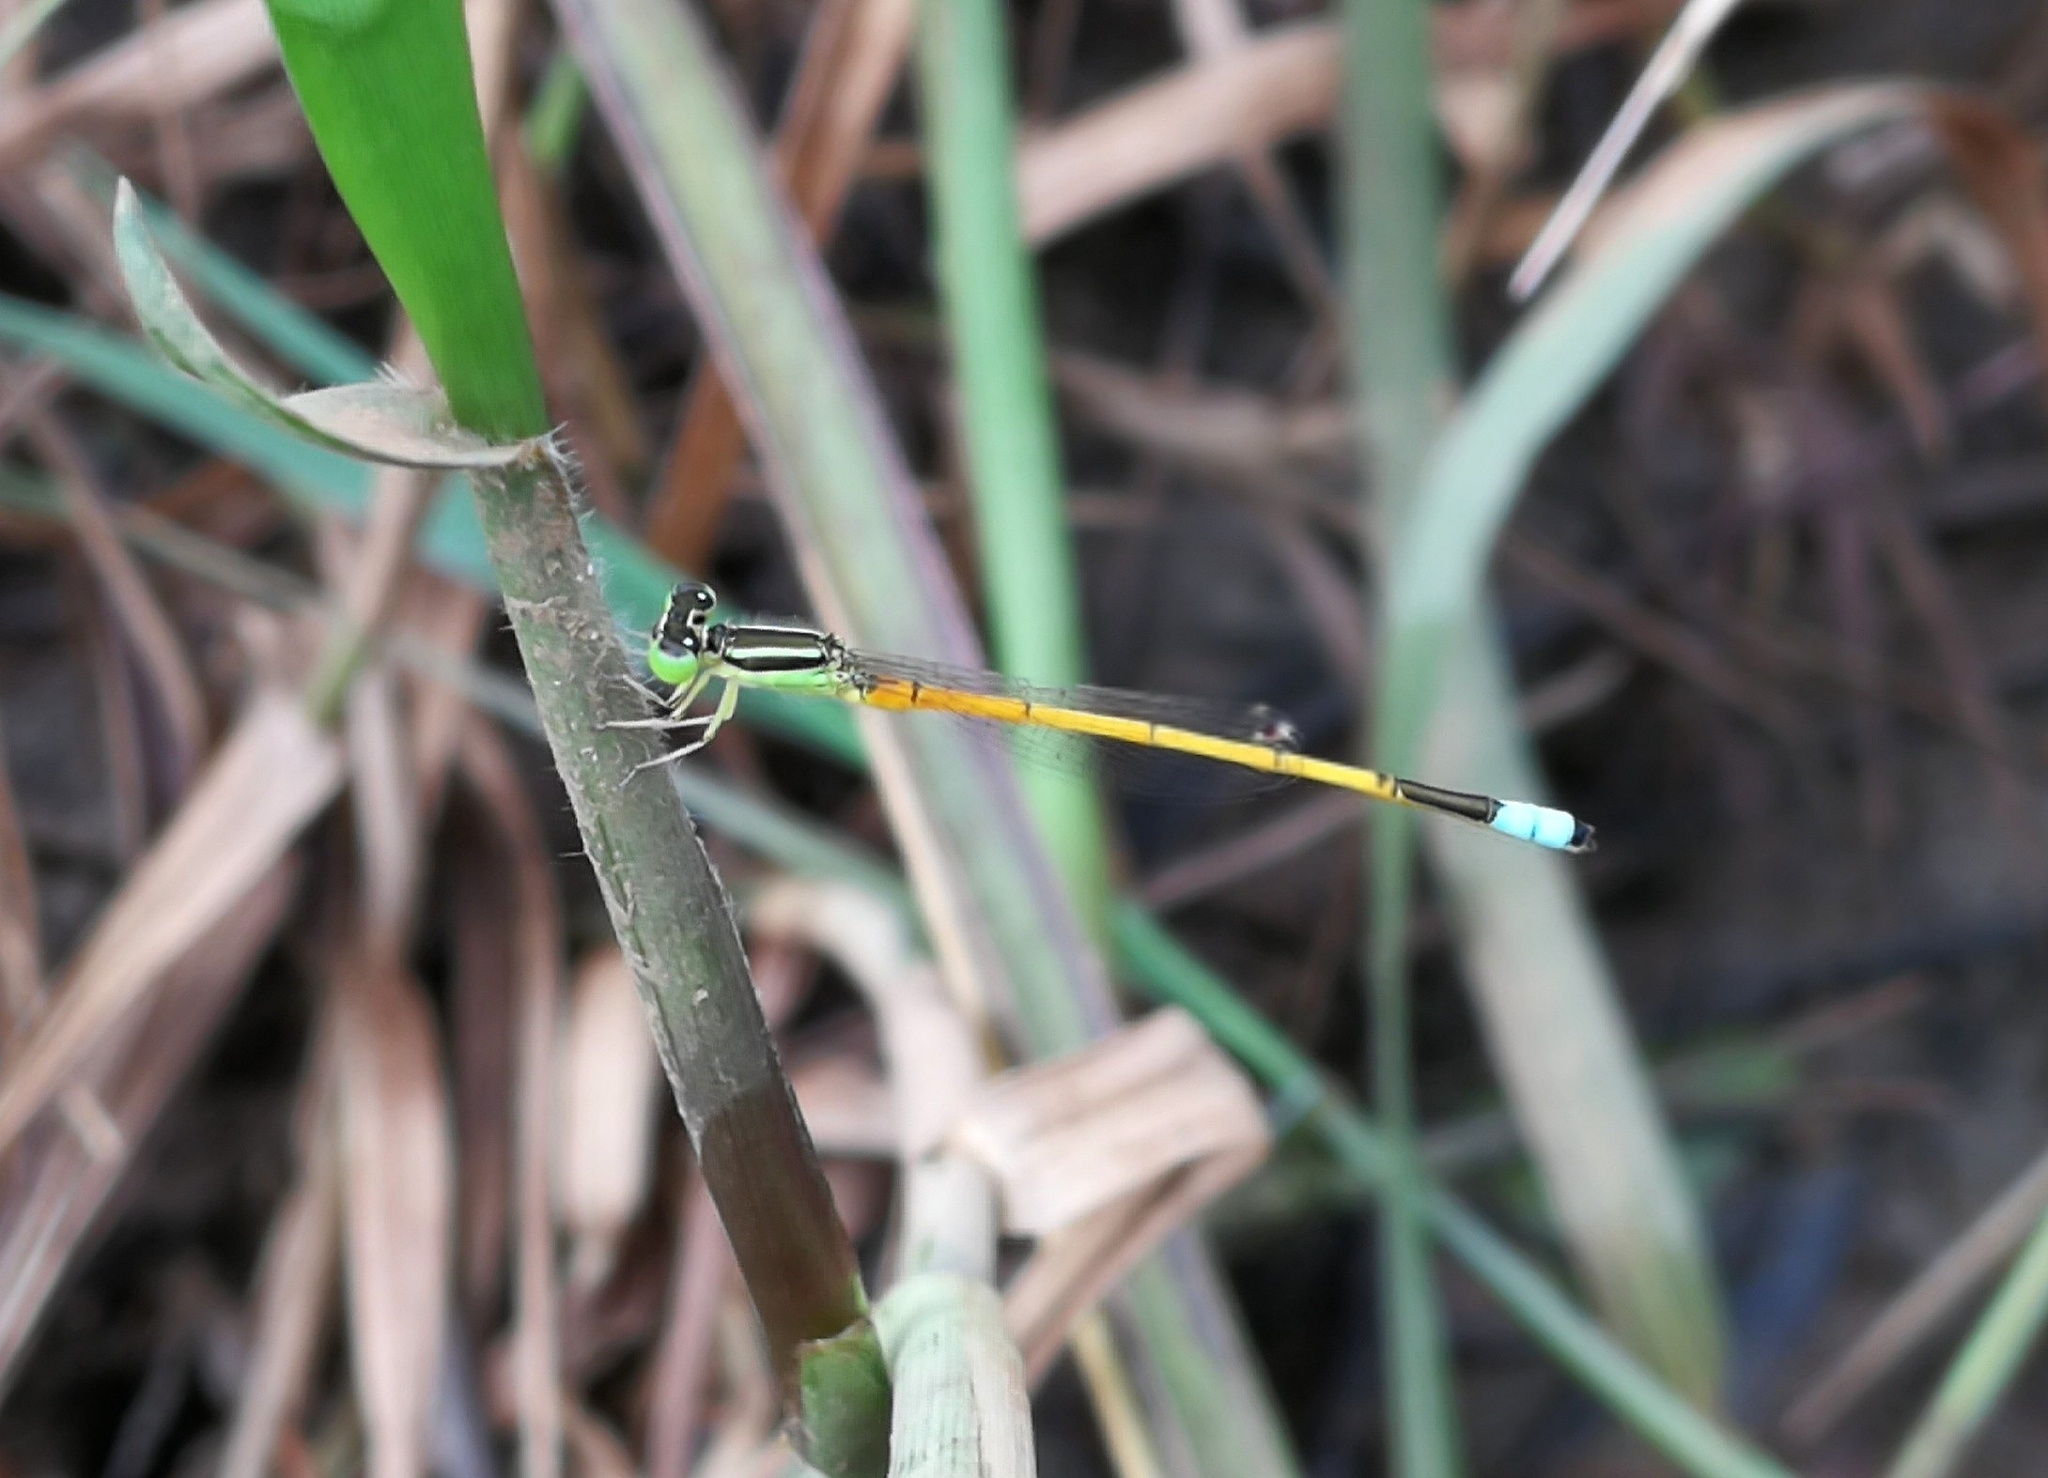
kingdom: Animalia
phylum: Arthropoda
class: Insecta
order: Odonata
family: Coenagrionidae
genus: Ischnura
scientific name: Ischnura rubilio
